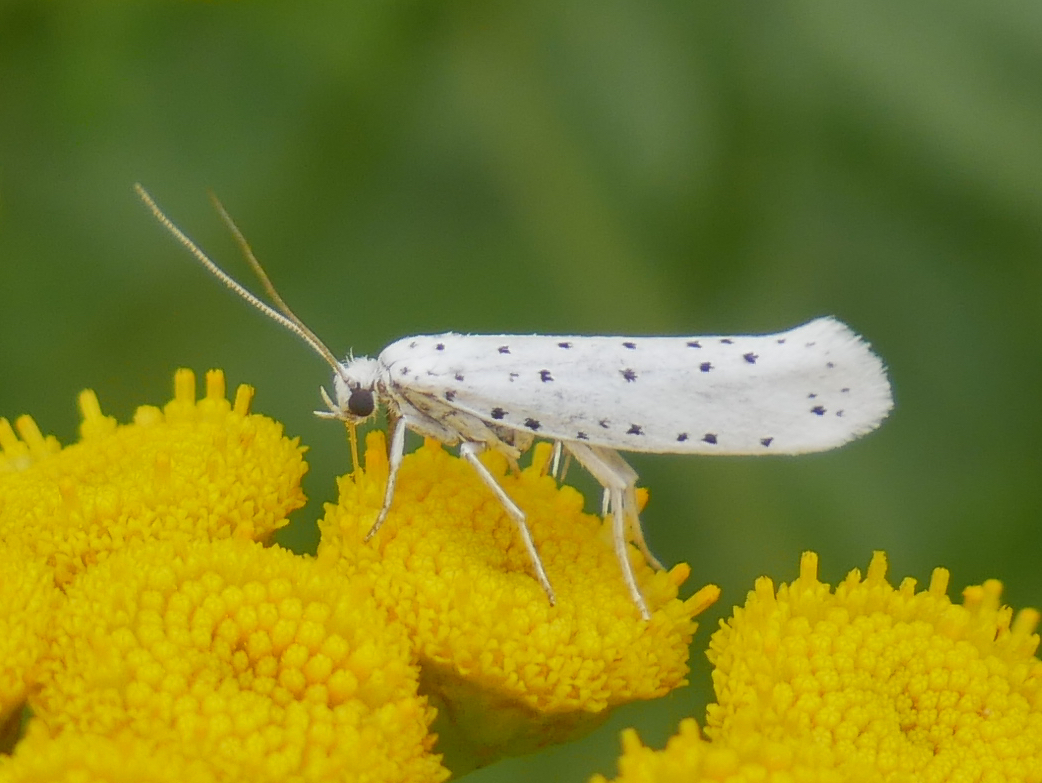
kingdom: Animalia
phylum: Arthropoda
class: Insecta
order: Lepidoptera
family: Yponomeutidae
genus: Yponomeuta
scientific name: Yponomeuta
